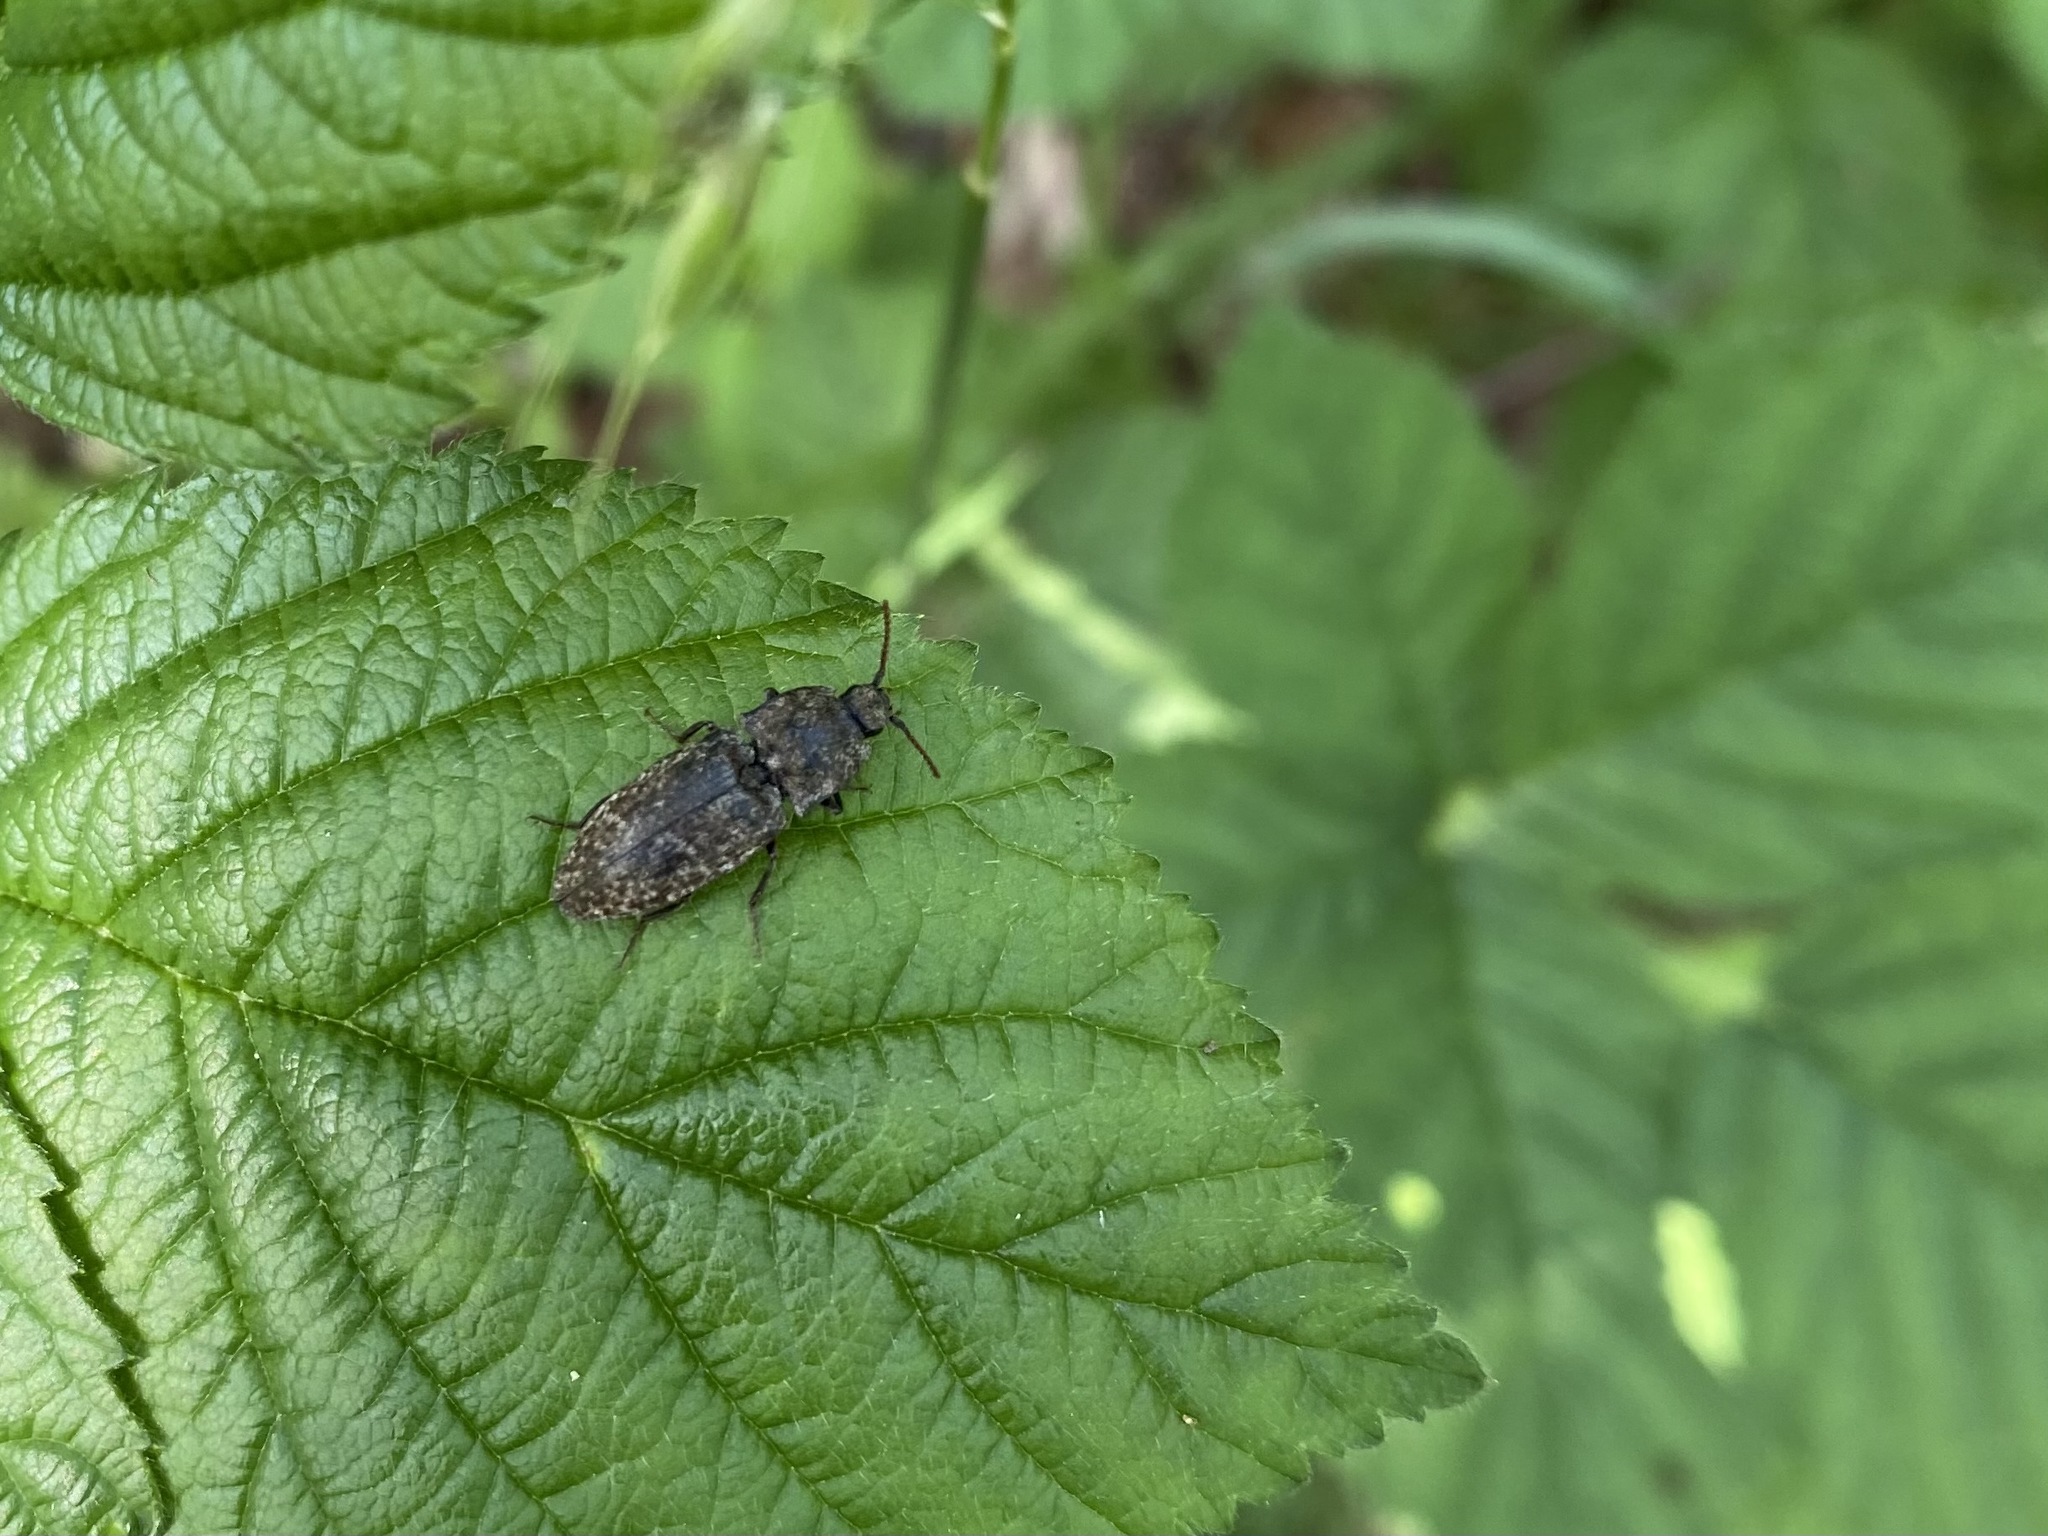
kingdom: Animalia
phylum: Arthropoda
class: Insecta
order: Coleoptera
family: Elateridae
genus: Agrypnus
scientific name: Agrypnus murinus
